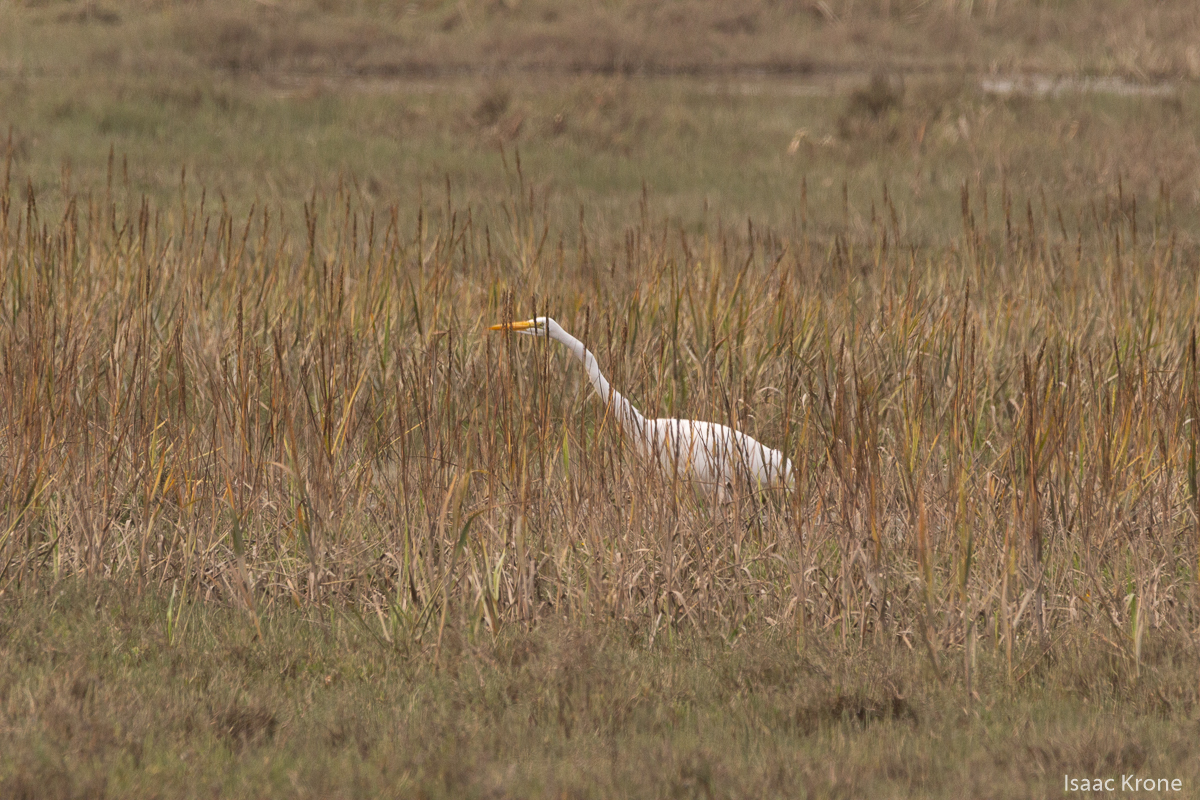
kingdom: Animalia
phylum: Chordata
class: Aves
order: Pelecaniformes
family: Ardeidae
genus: Ardea
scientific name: Ardea alba
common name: Great egret
